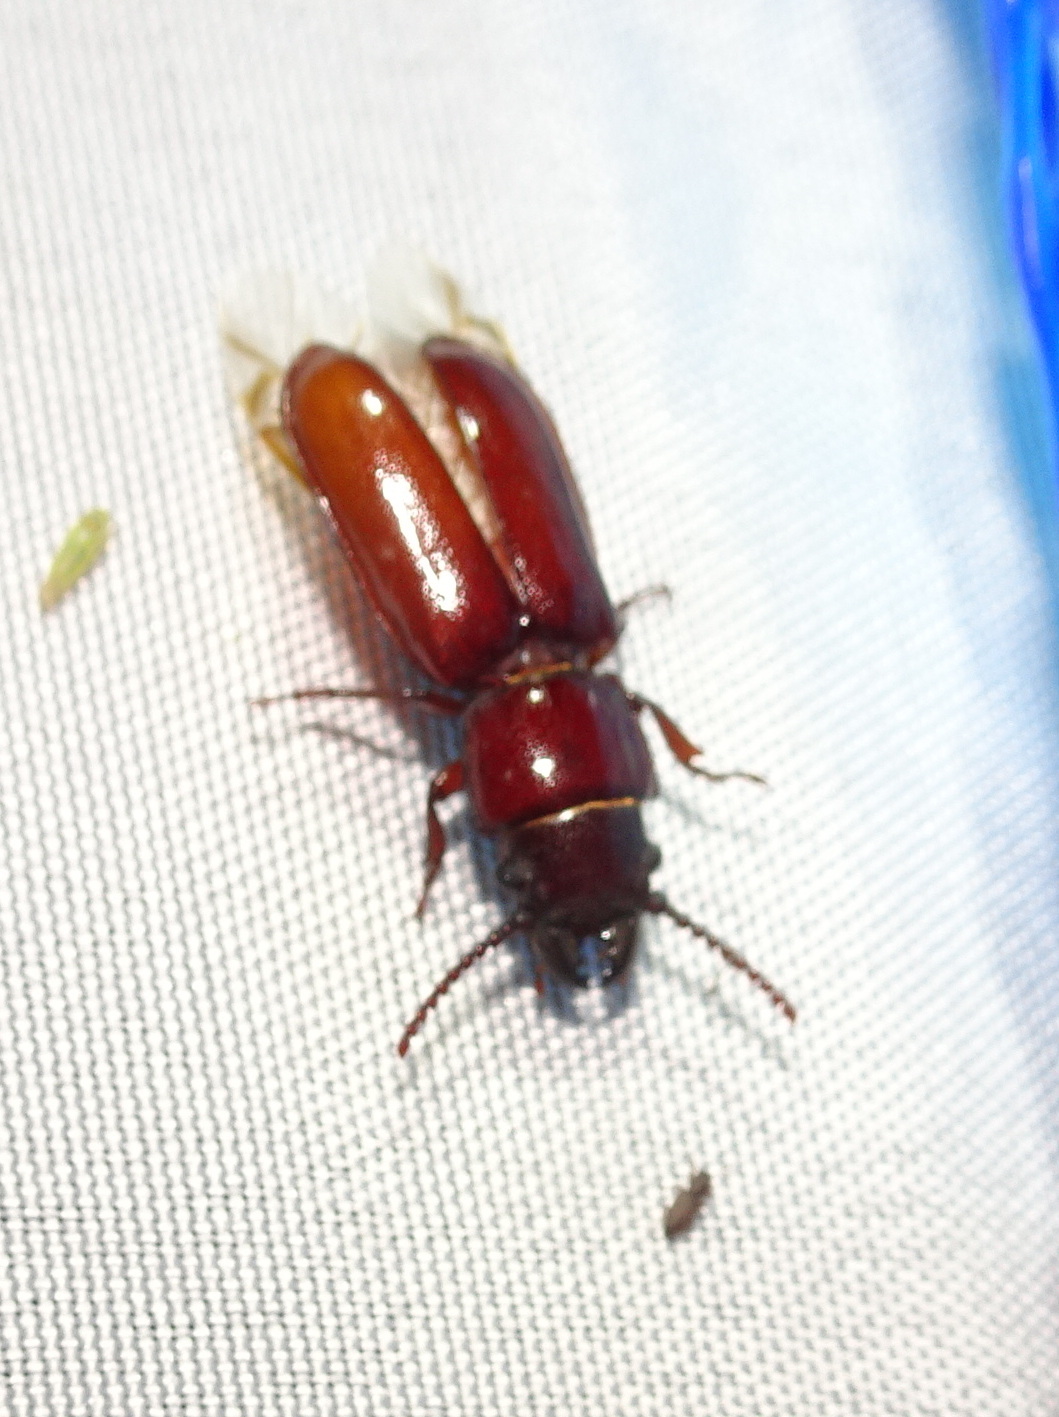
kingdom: Animalia
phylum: Arthropoda
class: Insecta
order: Coleoptera
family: Cerambycidae
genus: Neandra
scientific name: Neandra brunnea
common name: Pole borer
